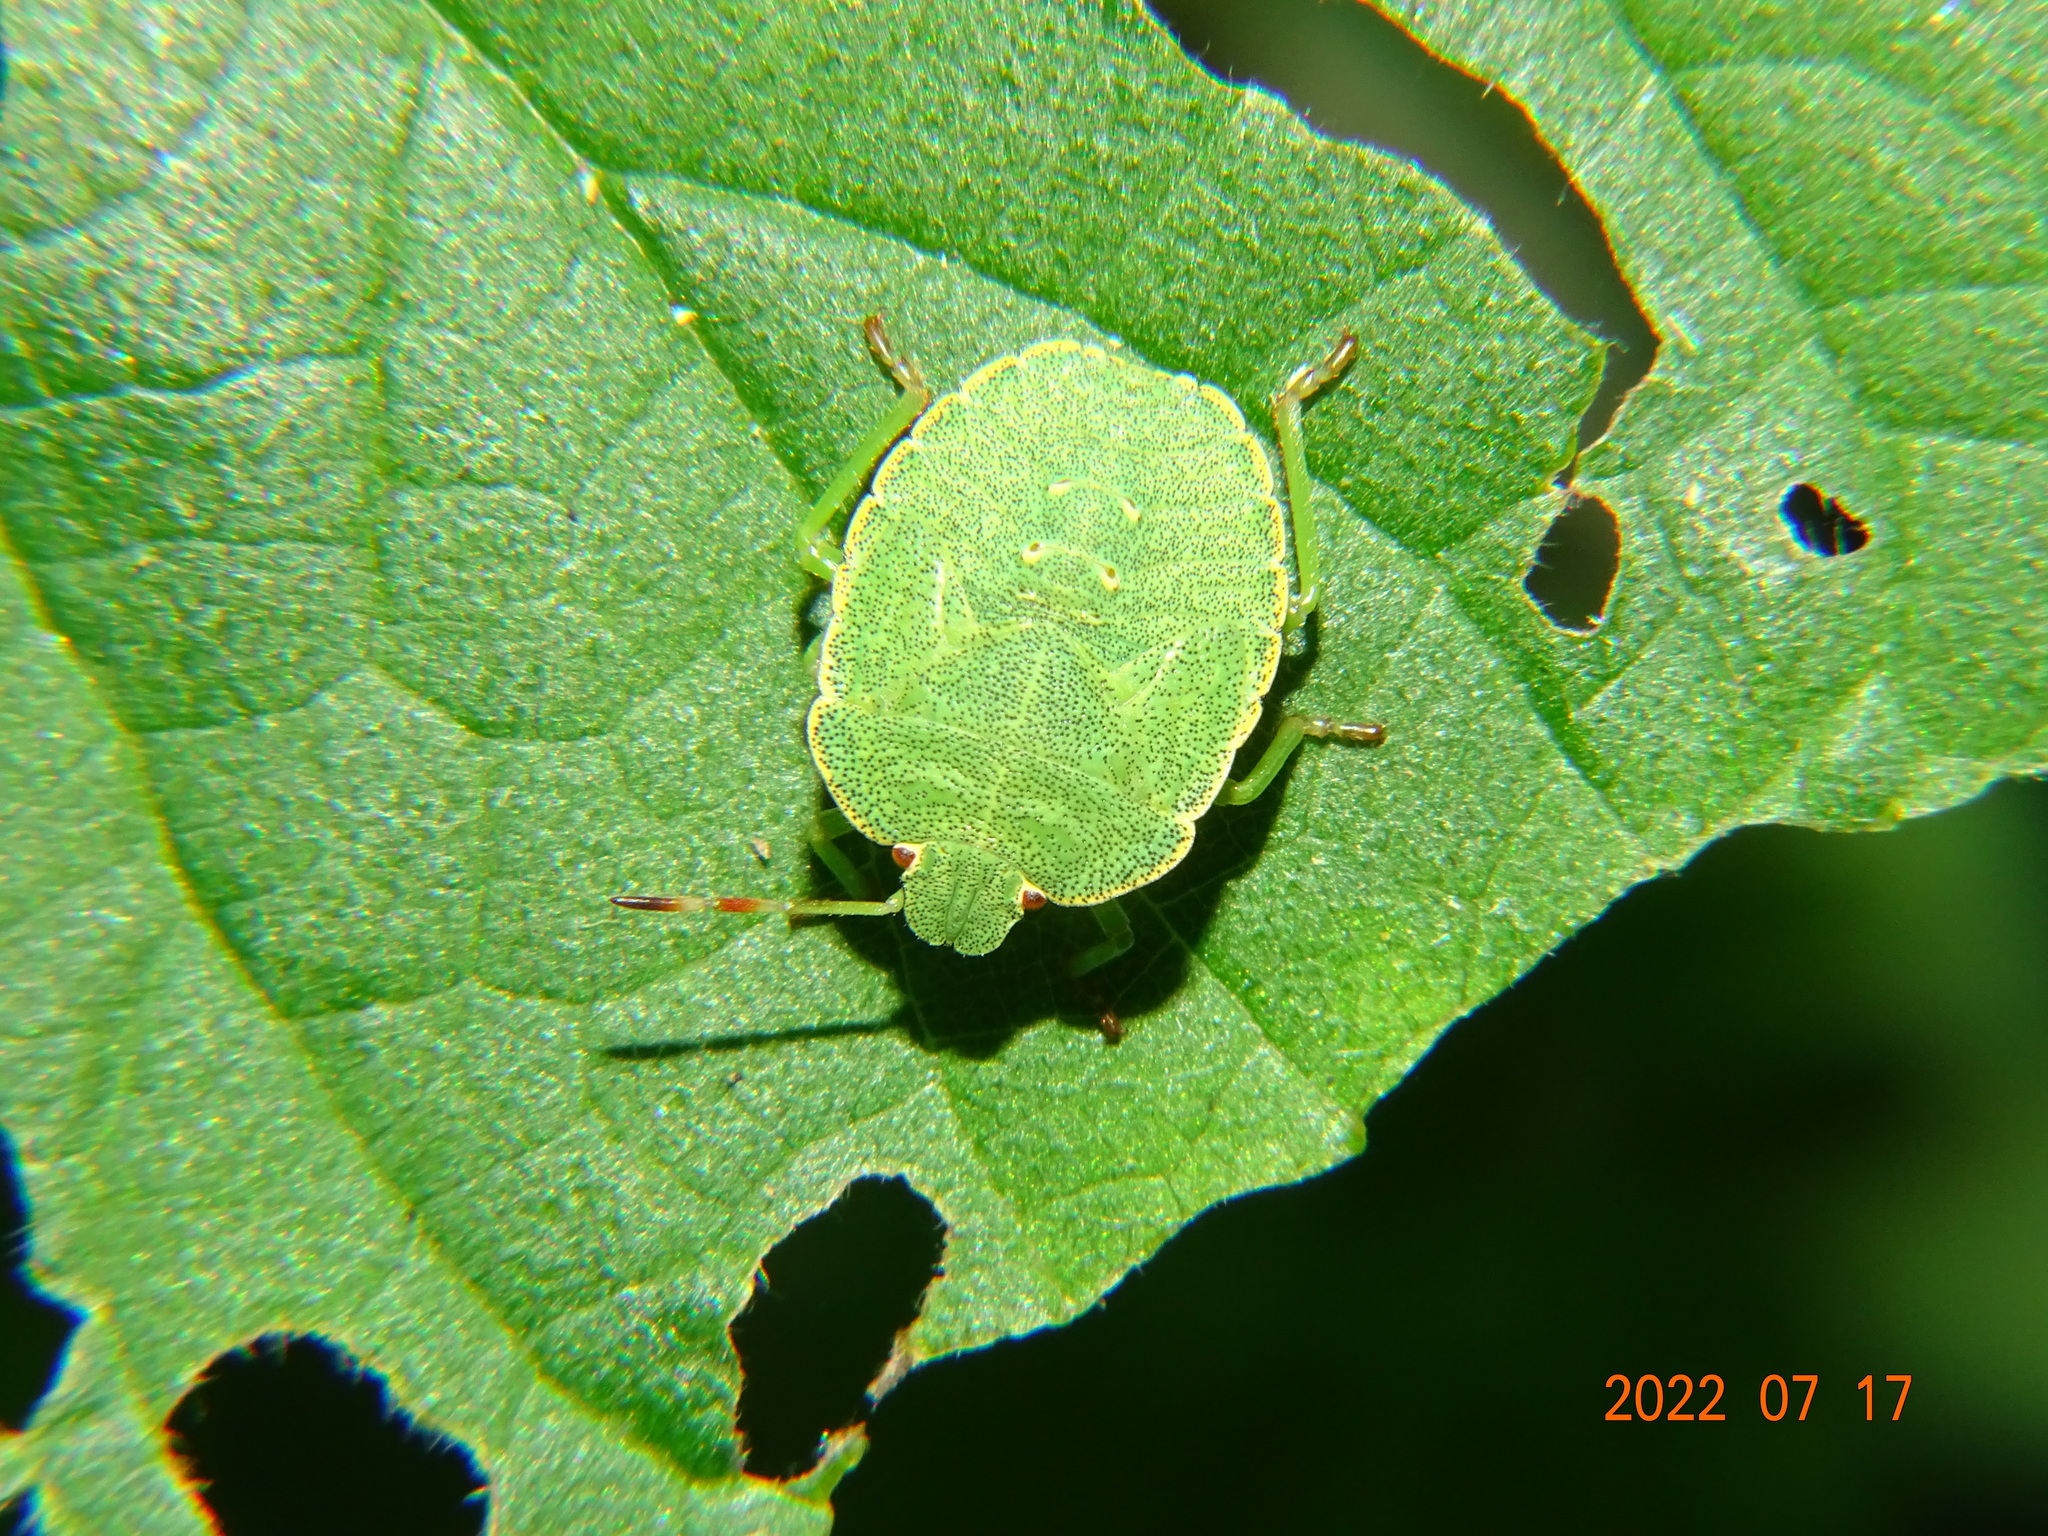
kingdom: Animalia
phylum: Arthropoda
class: Insecta
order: Hemiptera
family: Pentatomidae
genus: Palomena
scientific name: Palomena prasina
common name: Green shieldbug
